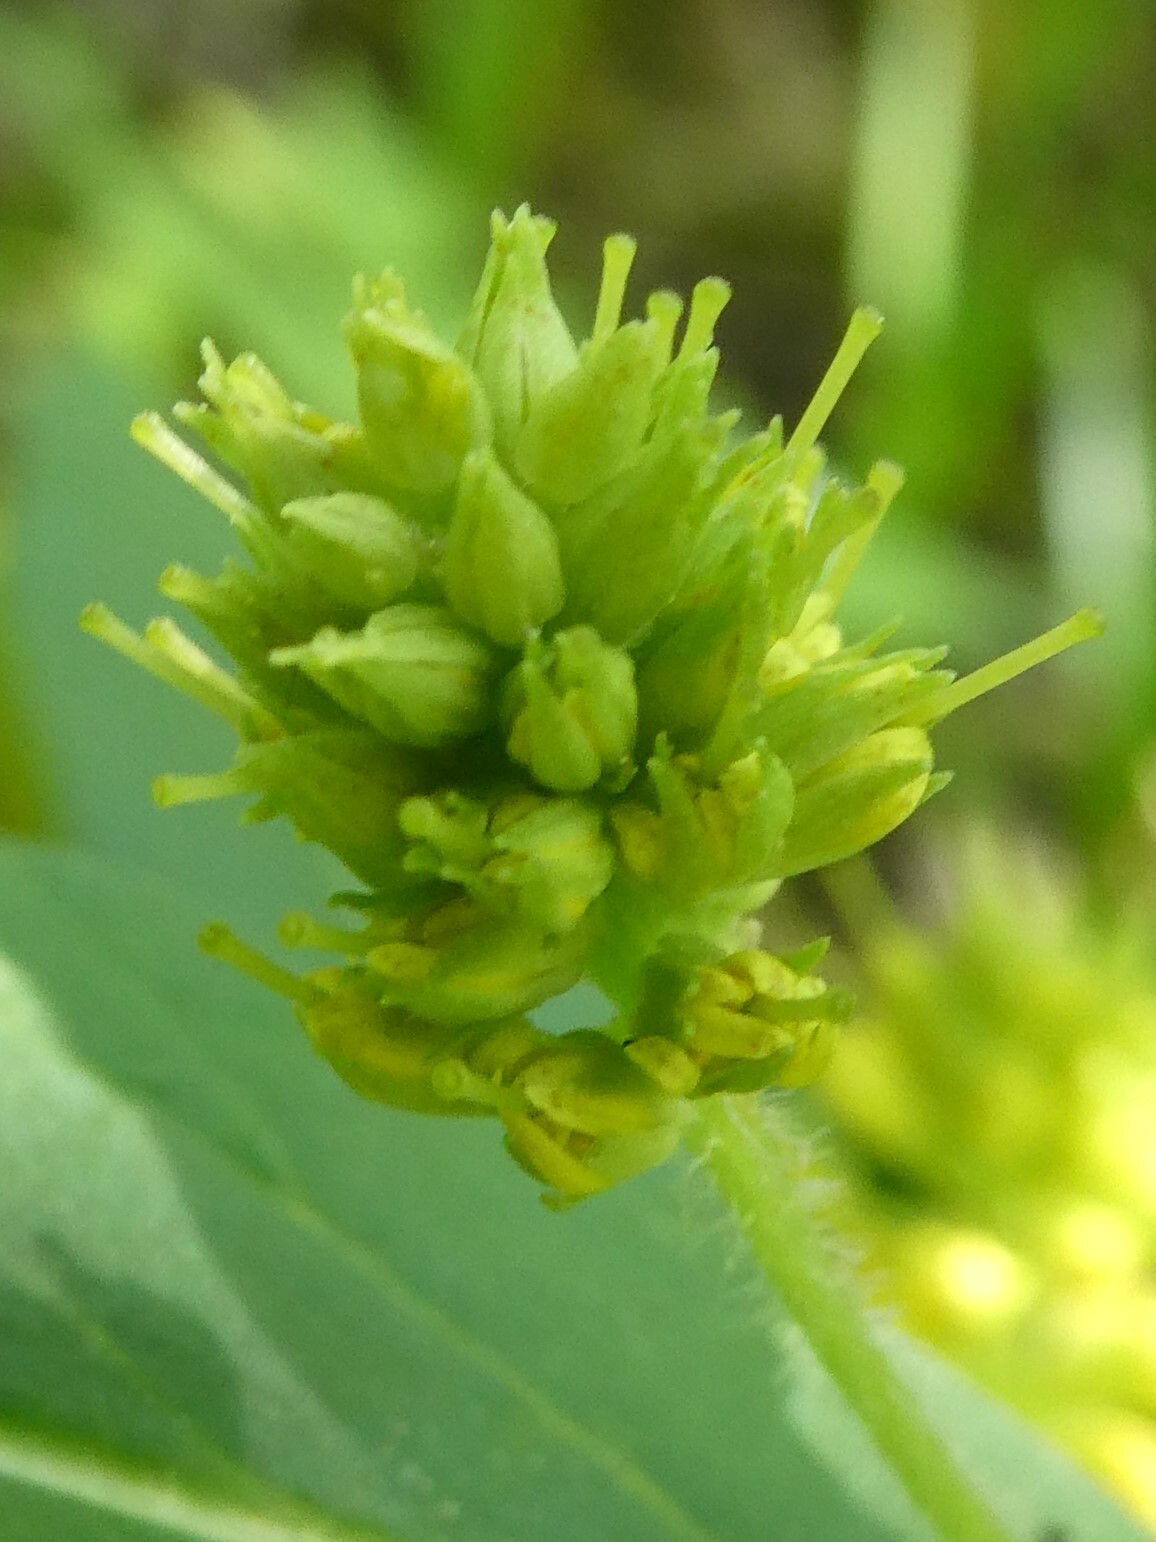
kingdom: Plantae
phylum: Tracheophyta
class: Magnoliopsida
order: Ericales
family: Primulaceae
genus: Lysimachia
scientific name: Lysimachia thyrsiflora
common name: Tufted loosestrife
